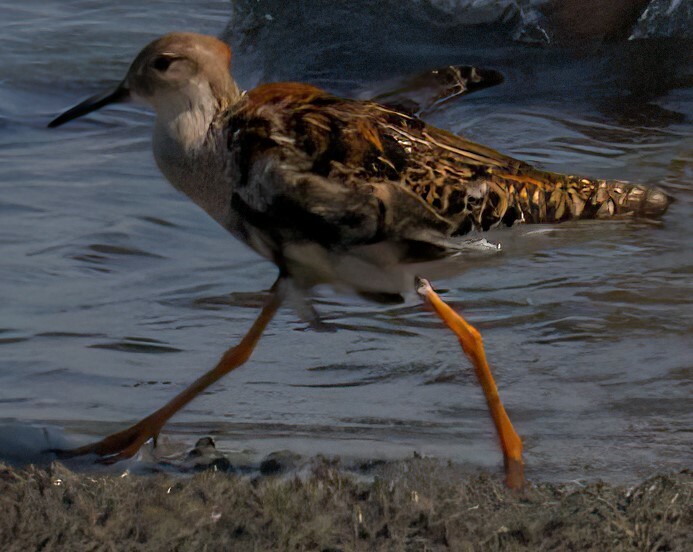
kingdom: Animalia
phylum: Chordata
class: Aves
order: Charadriiformes
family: Scolopacidae
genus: Calidris
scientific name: Calidris pugnax
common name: Ruff
